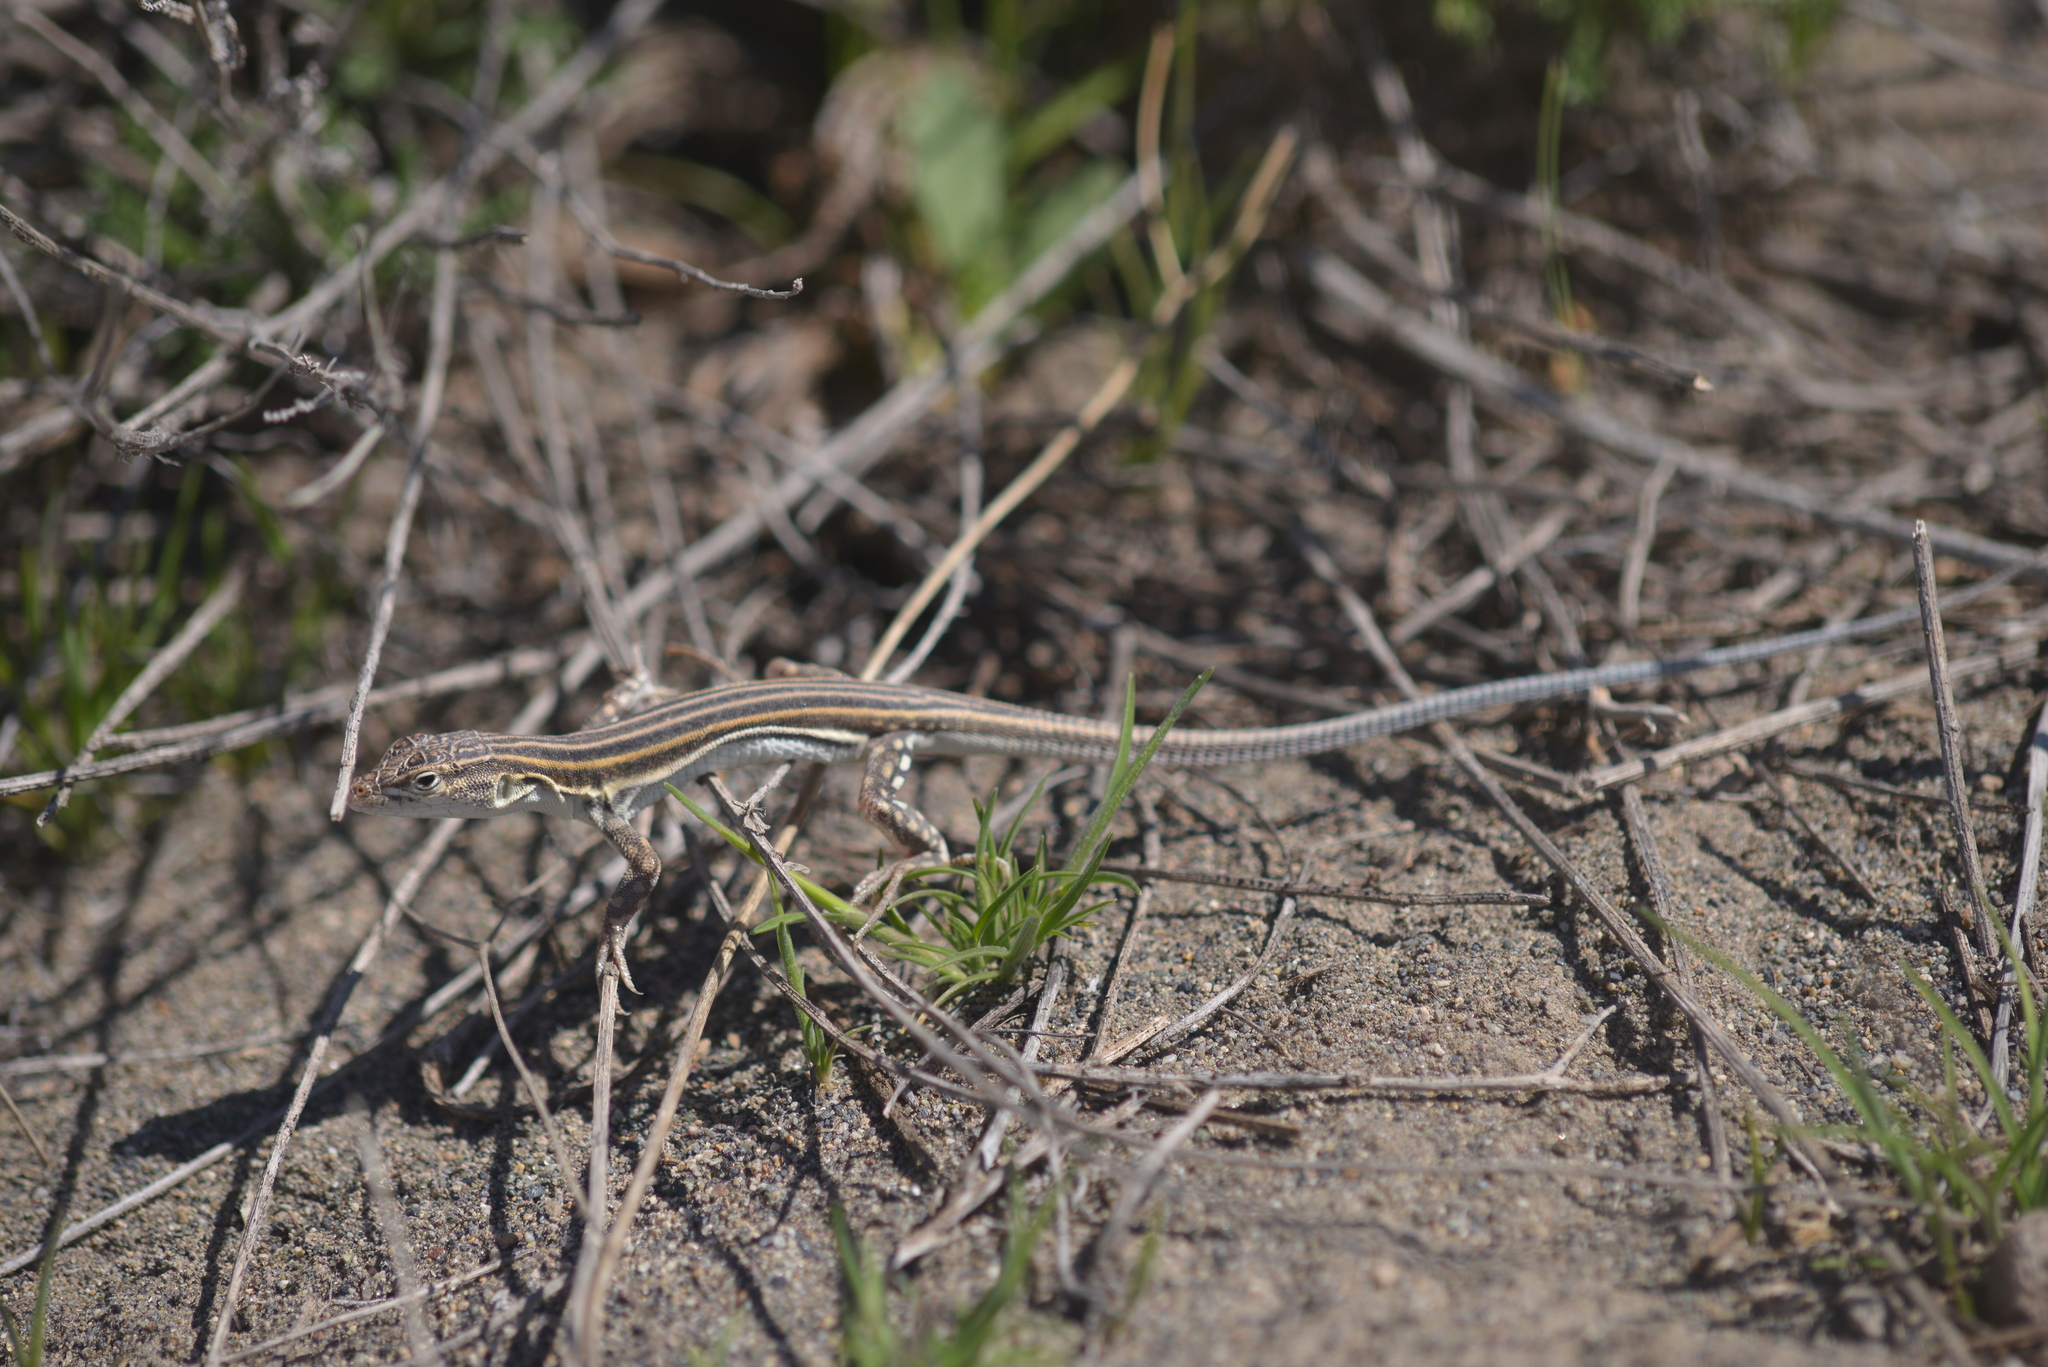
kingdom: Animalia
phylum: Chordata
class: Squamata
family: Lacertidae
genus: Eremias
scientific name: Eremias pleskei
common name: Pleske's racerunner
